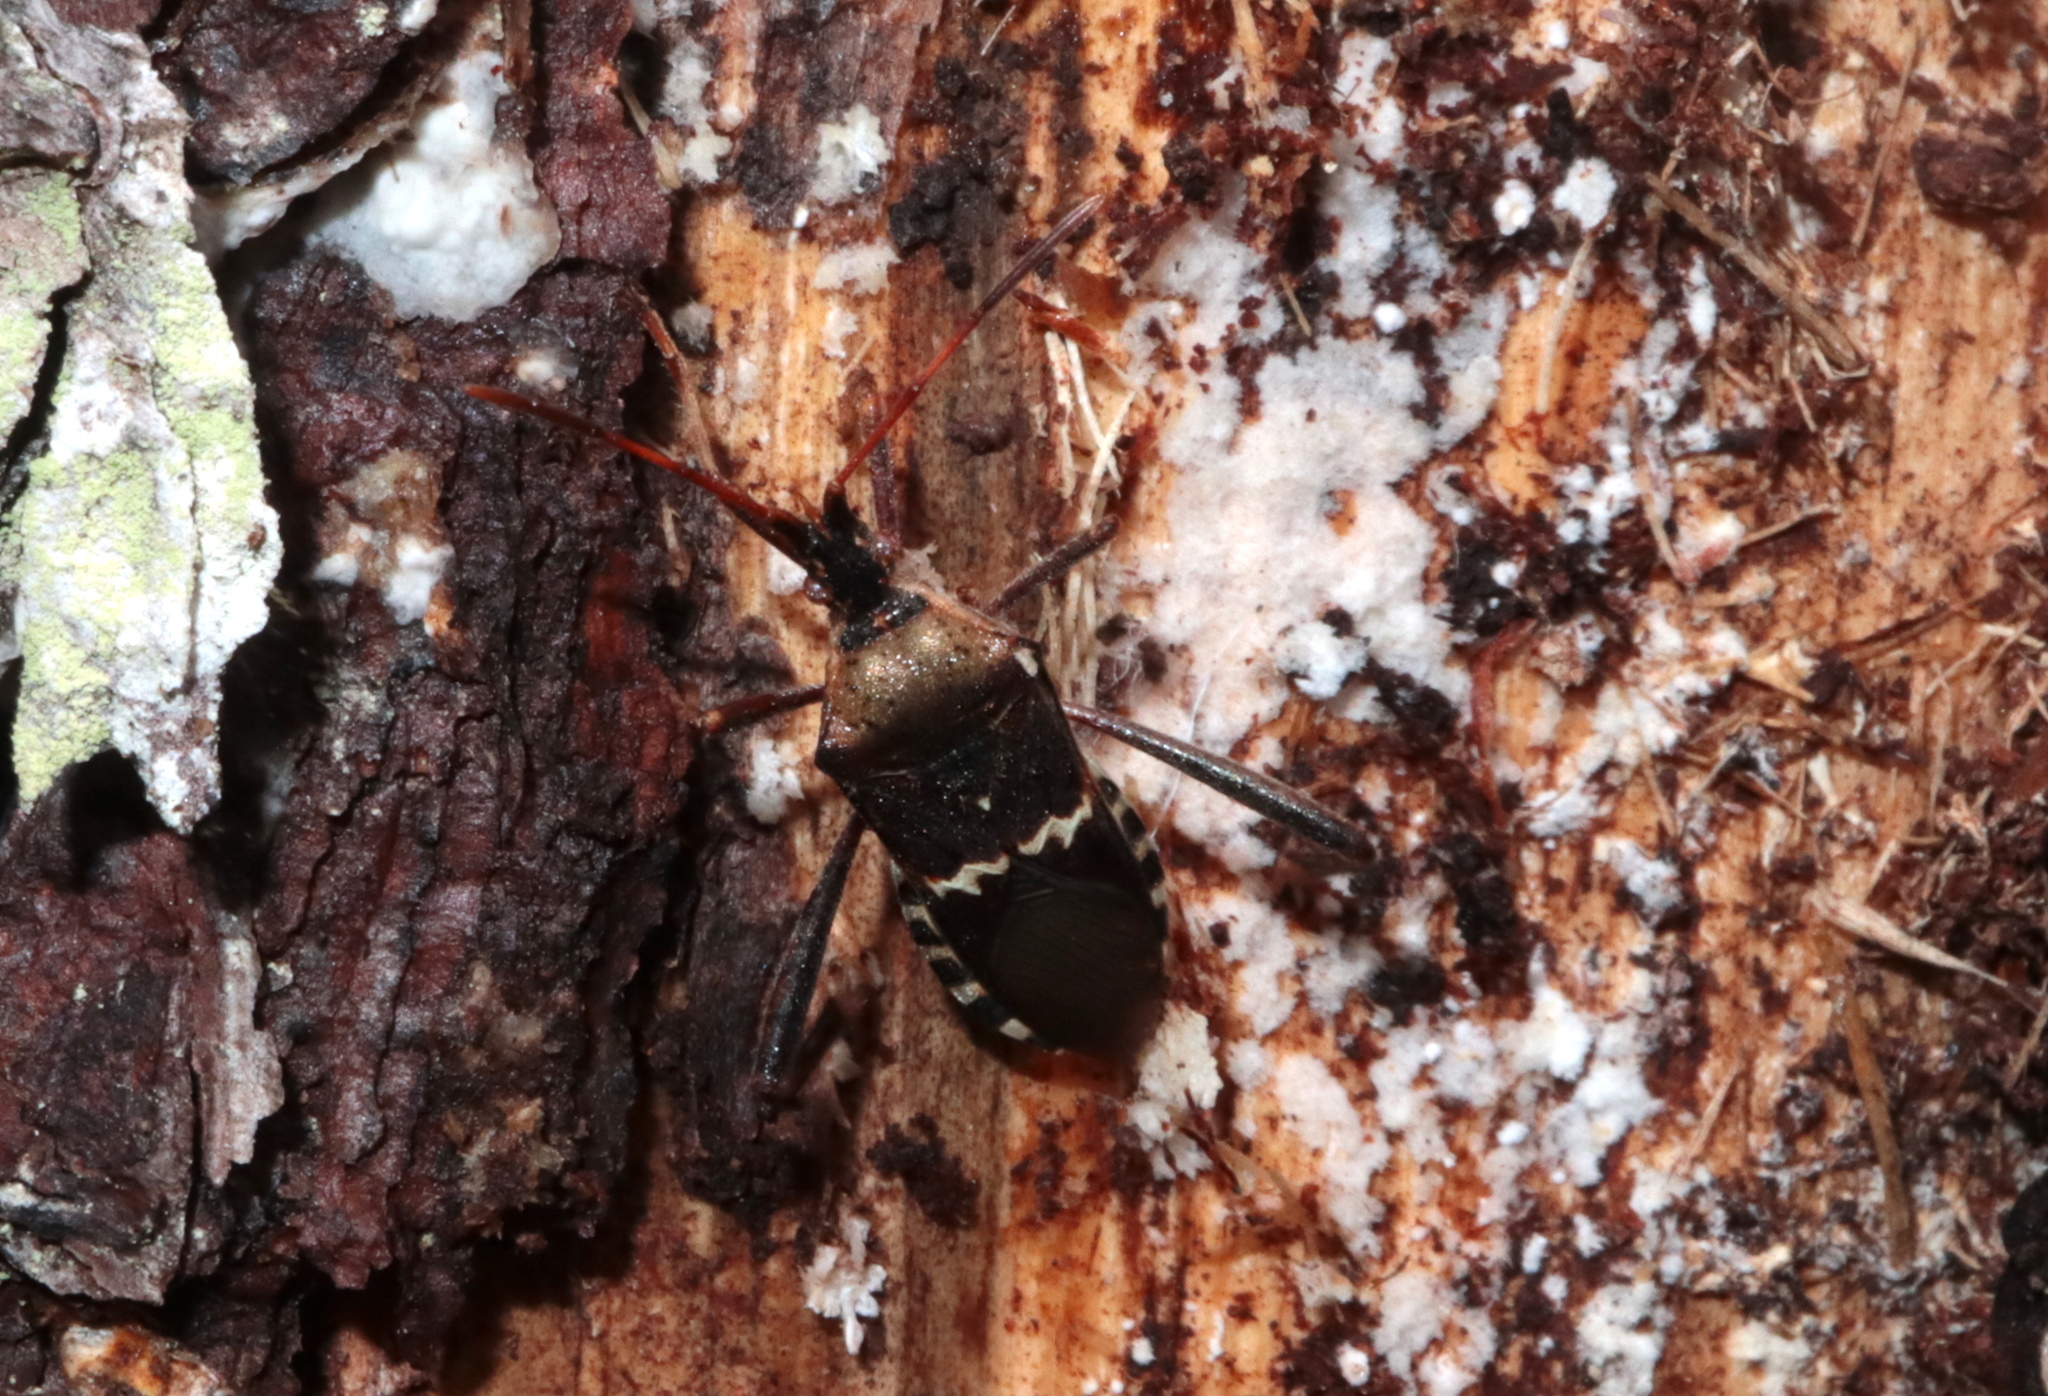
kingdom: Animalia
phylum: Arthropoda
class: Insecta
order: Hemiptera
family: Coreidae
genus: Leptoglossus
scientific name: Leptoglossus clypealis
